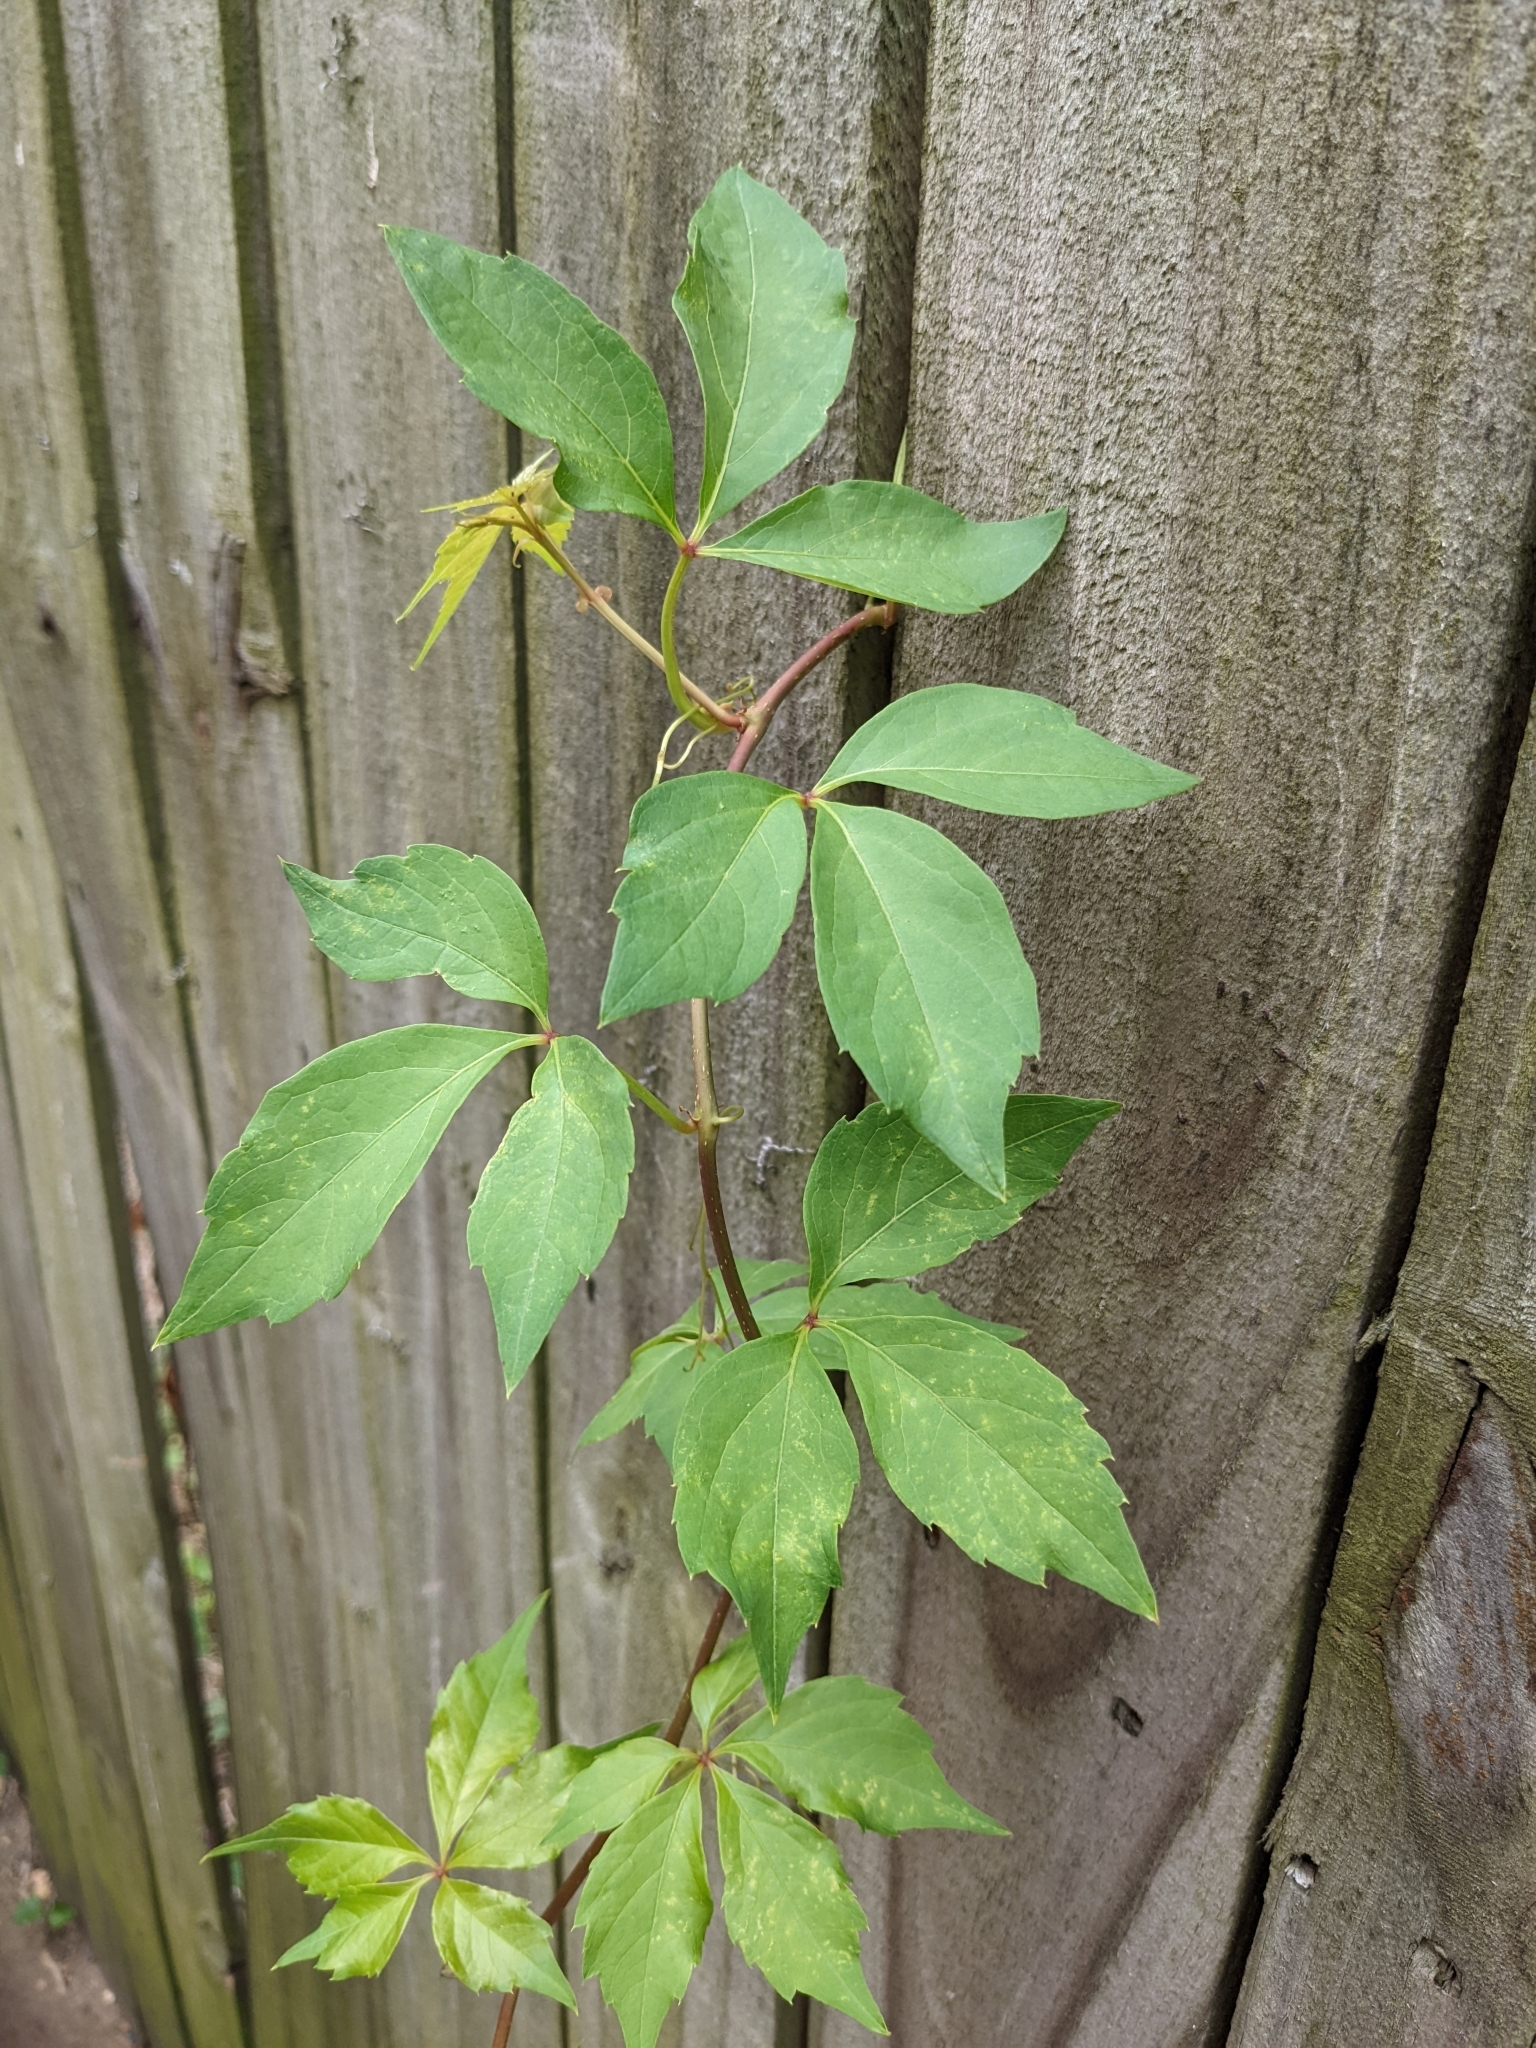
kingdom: Plantae
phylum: Tracheophyta
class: Magnoliopsida
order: Vitales
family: Vitaceae
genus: Parthenocissus
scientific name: Parthenocissus quinquefolia
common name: Virginia-creeper
